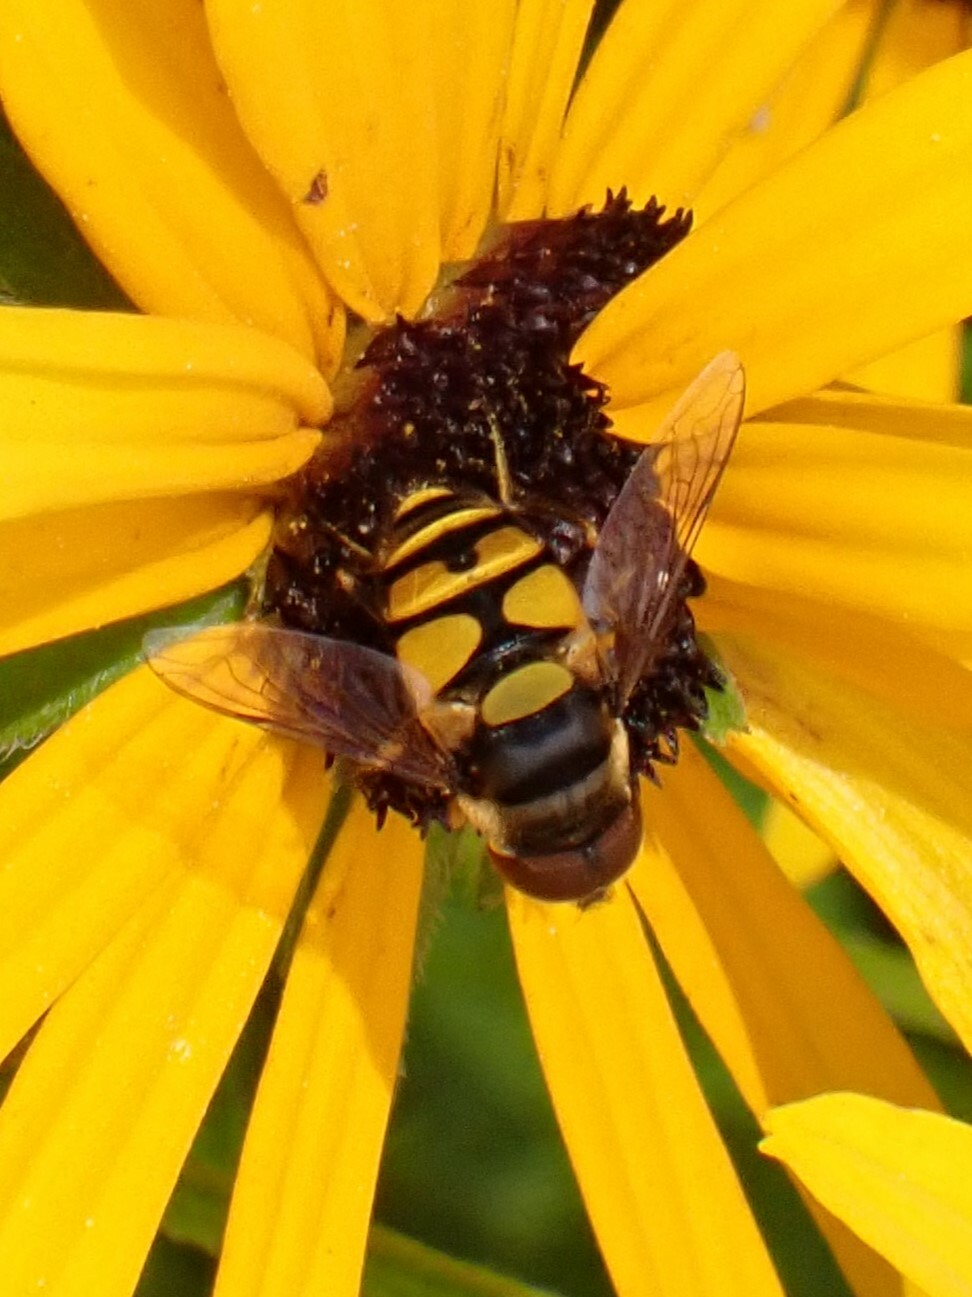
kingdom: Animalia
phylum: Arthropoda
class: Insecta
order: Diptera
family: Syrphidae
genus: Eristalis
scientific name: Eristalis transversa
